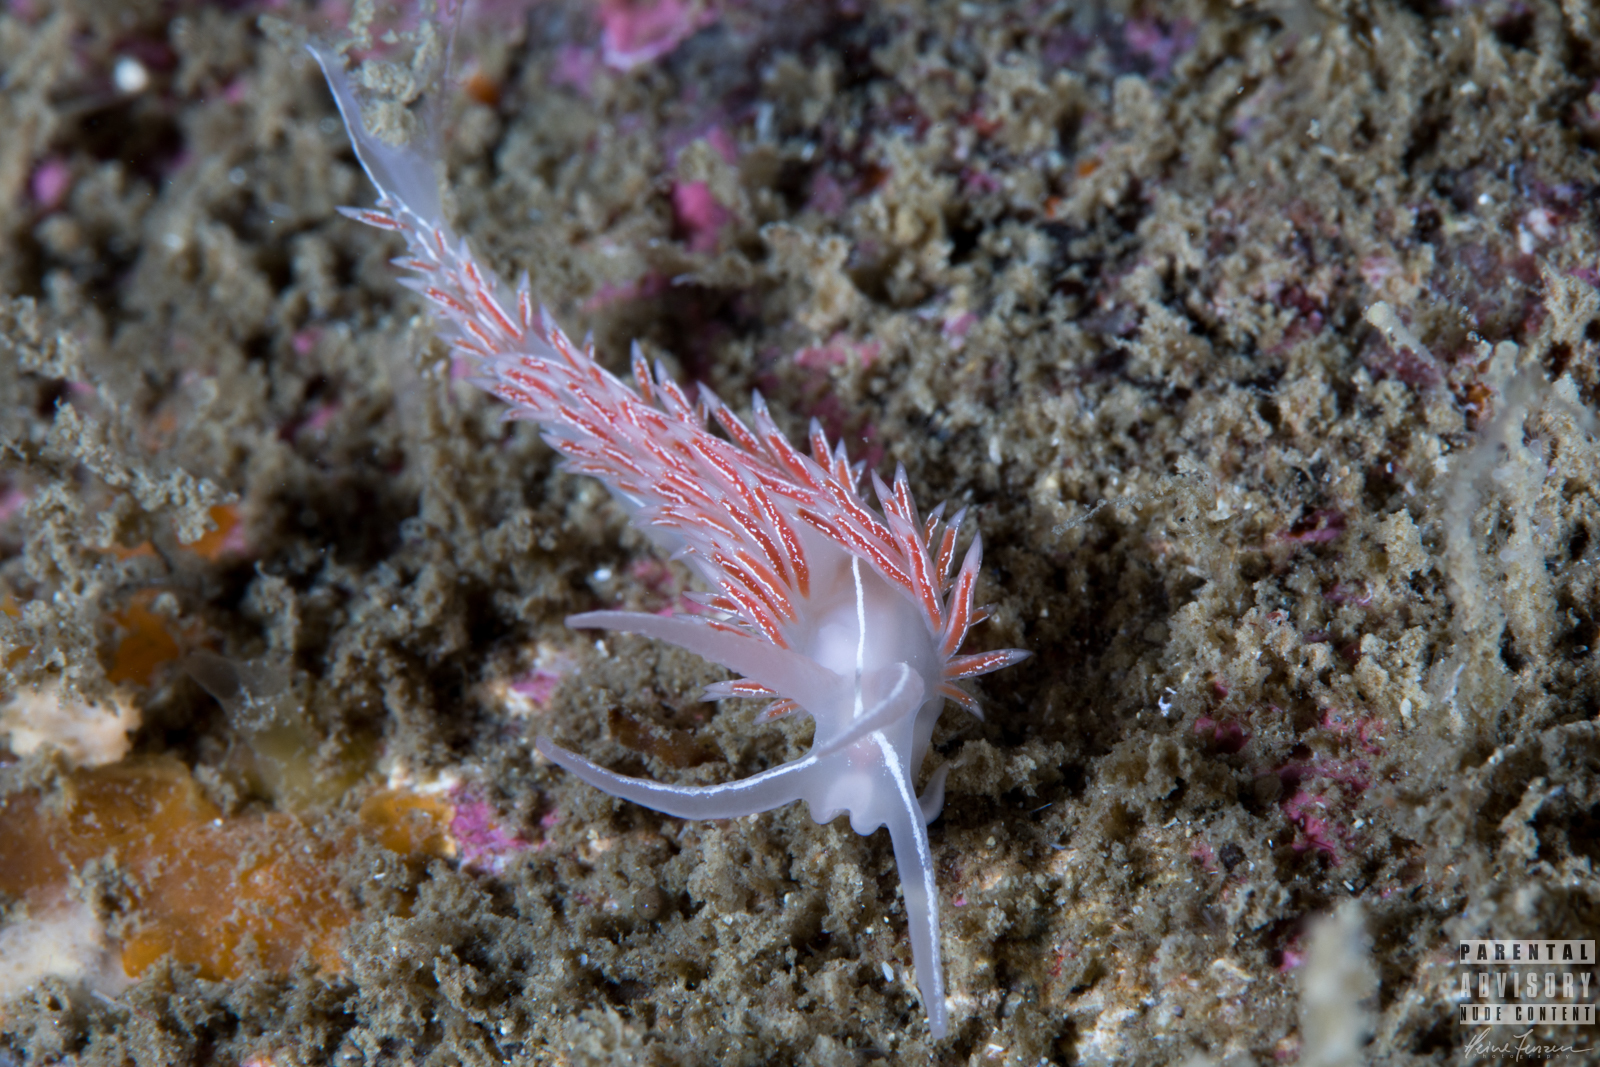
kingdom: Animalia
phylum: Mollusca
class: Gastropoda
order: Nudibranchia
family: Coryphellidae
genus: Coryphella
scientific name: Coryphella chriskaugei
